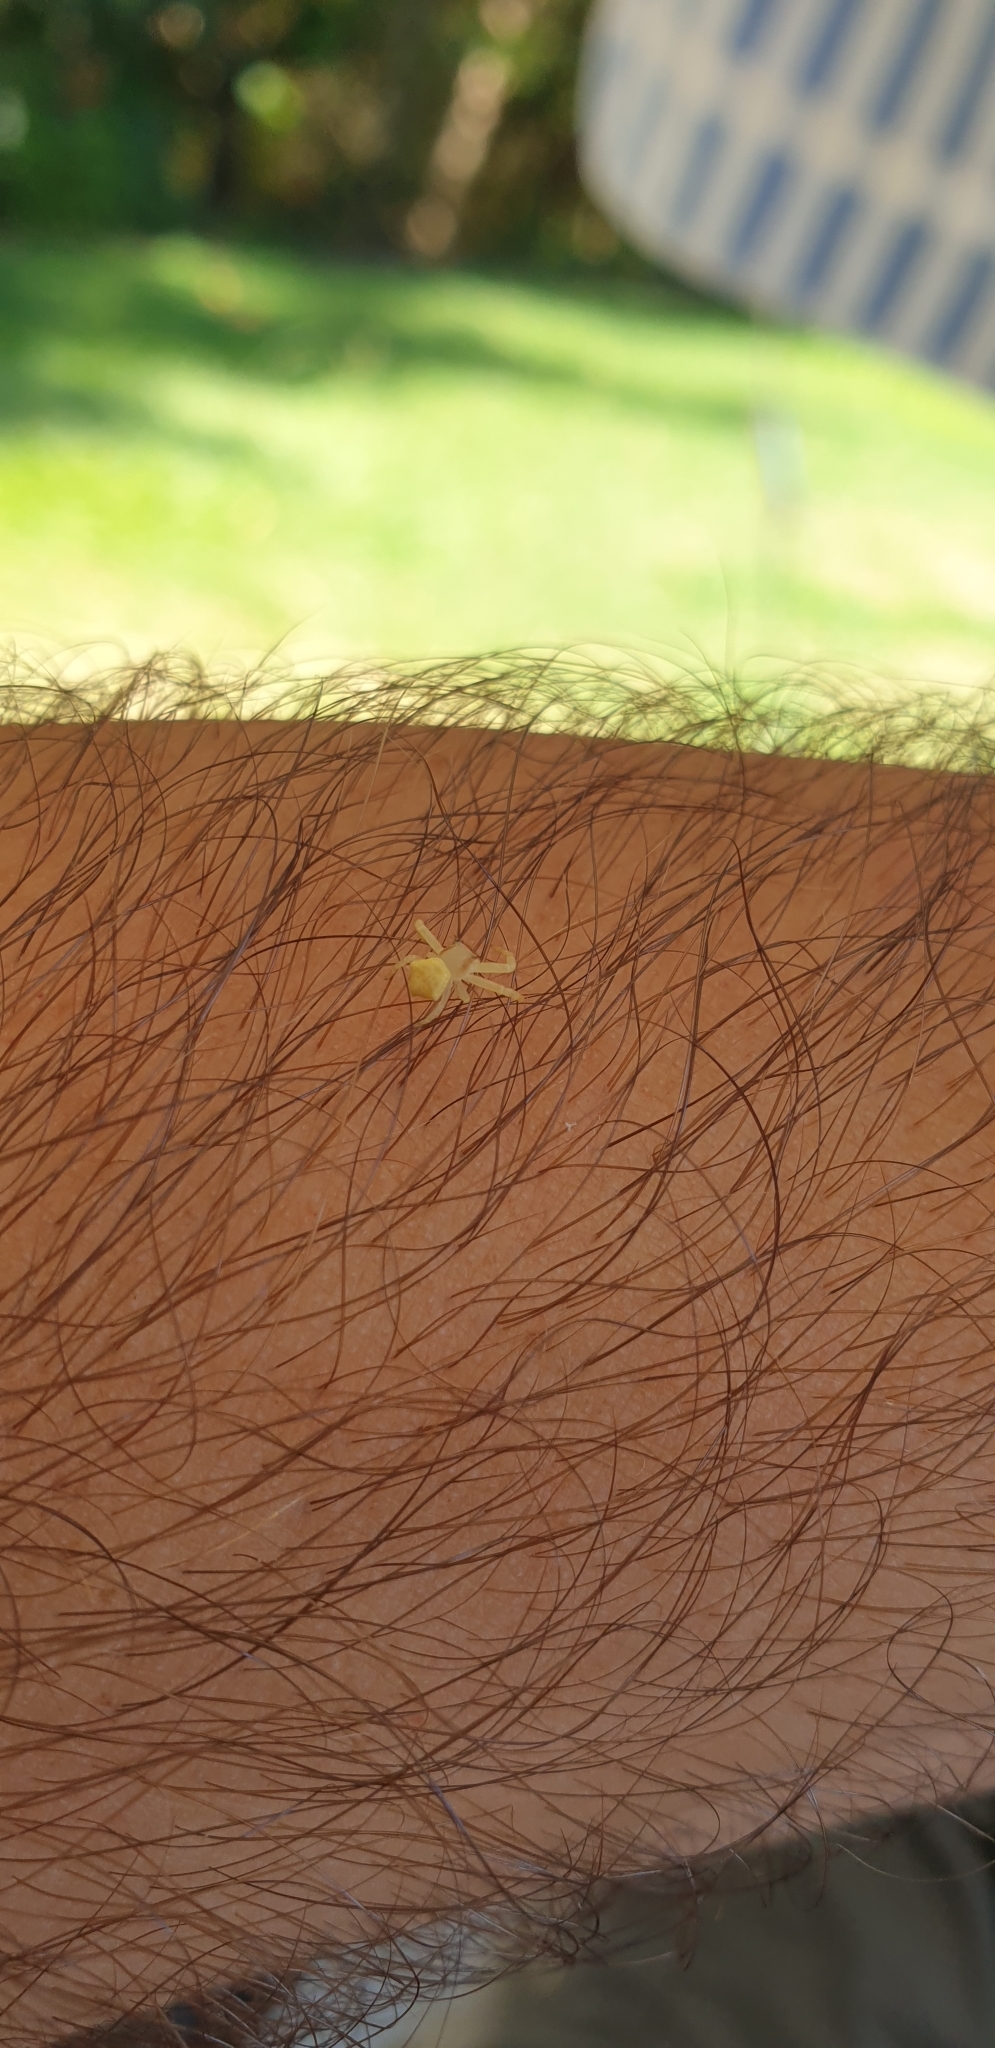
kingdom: Animalia
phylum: Arthropoda
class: Arachnida
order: Araneae
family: Thomisidae
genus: Thomisus
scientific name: Thomisus spectabilis
